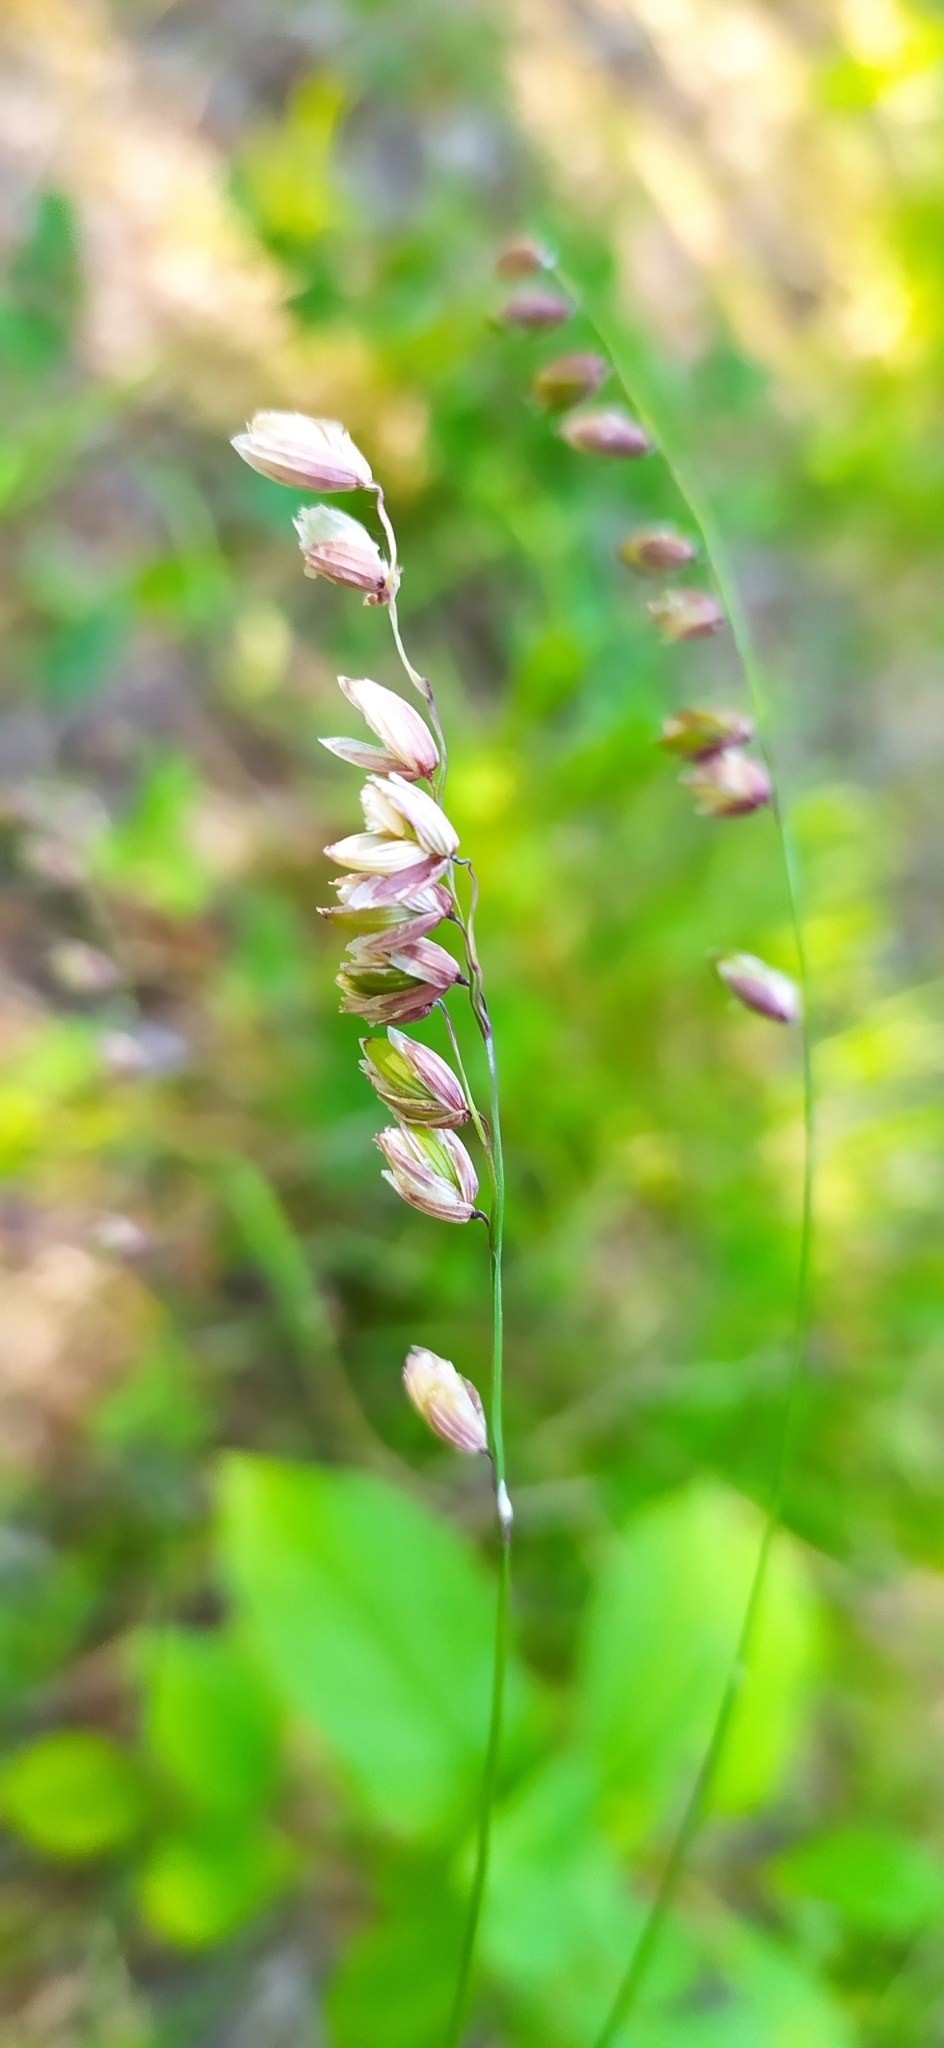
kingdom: Plantae
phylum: Tracheophyta
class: Liliopsida
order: Poales
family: Poaceae
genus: Melica
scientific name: Melica nutans
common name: Mountain melick
